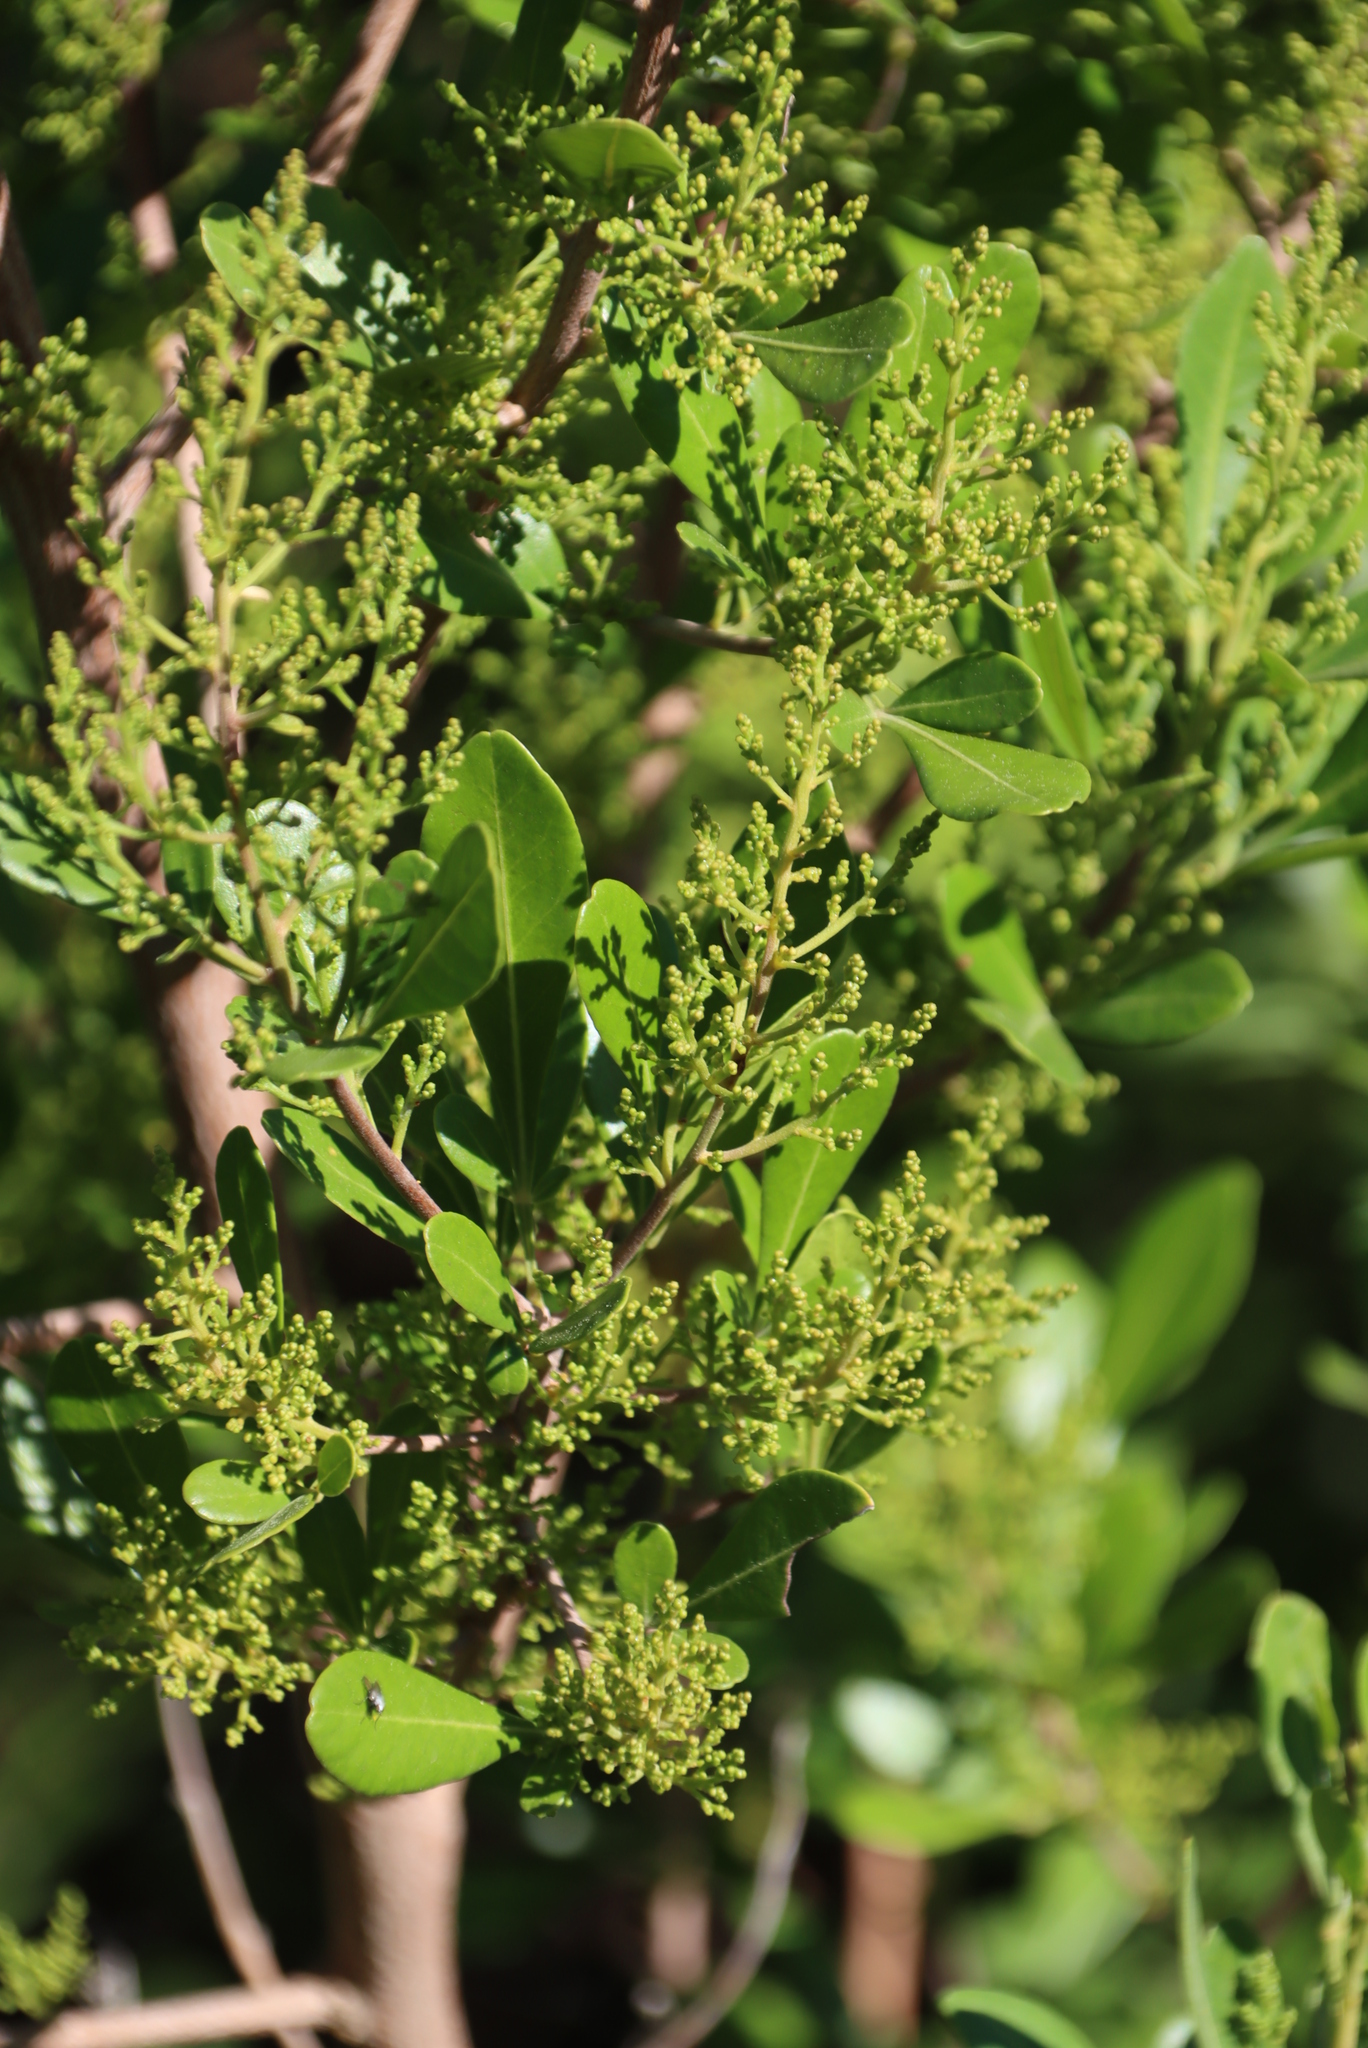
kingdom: Plantae
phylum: Tracheophyta
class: Magnoliopsida
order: Sapindales
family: Anacardiaceae
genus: Searsia
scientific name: Searsia lucida
